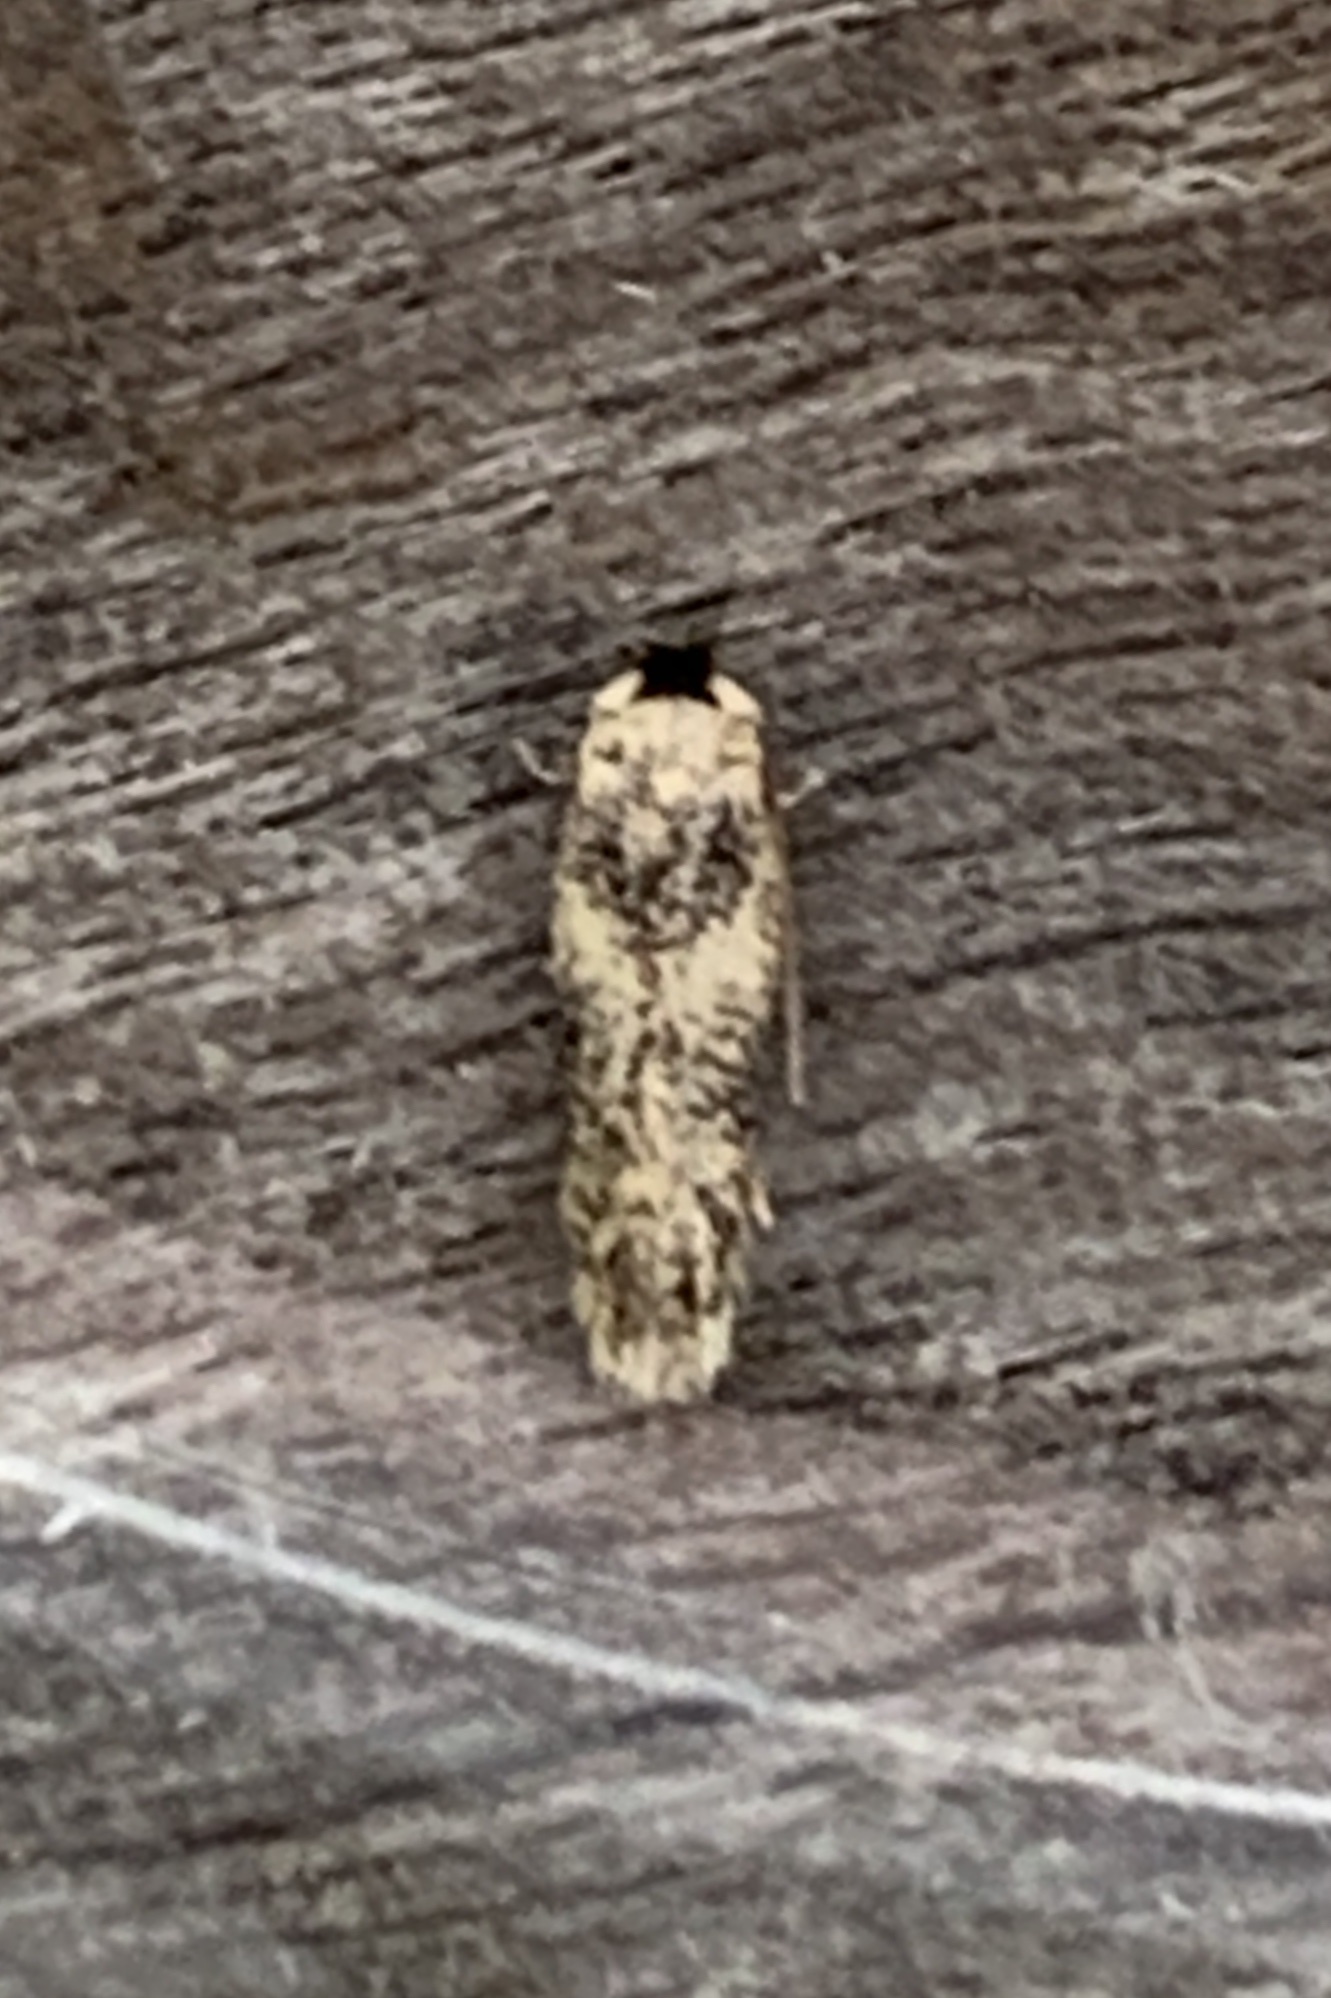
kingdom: Animalia
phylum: Arthropoda
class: Insecta
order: Lepidoptera
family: Nepticulidae
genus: Zimmermannia
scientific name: Zimmermannia bosquella
